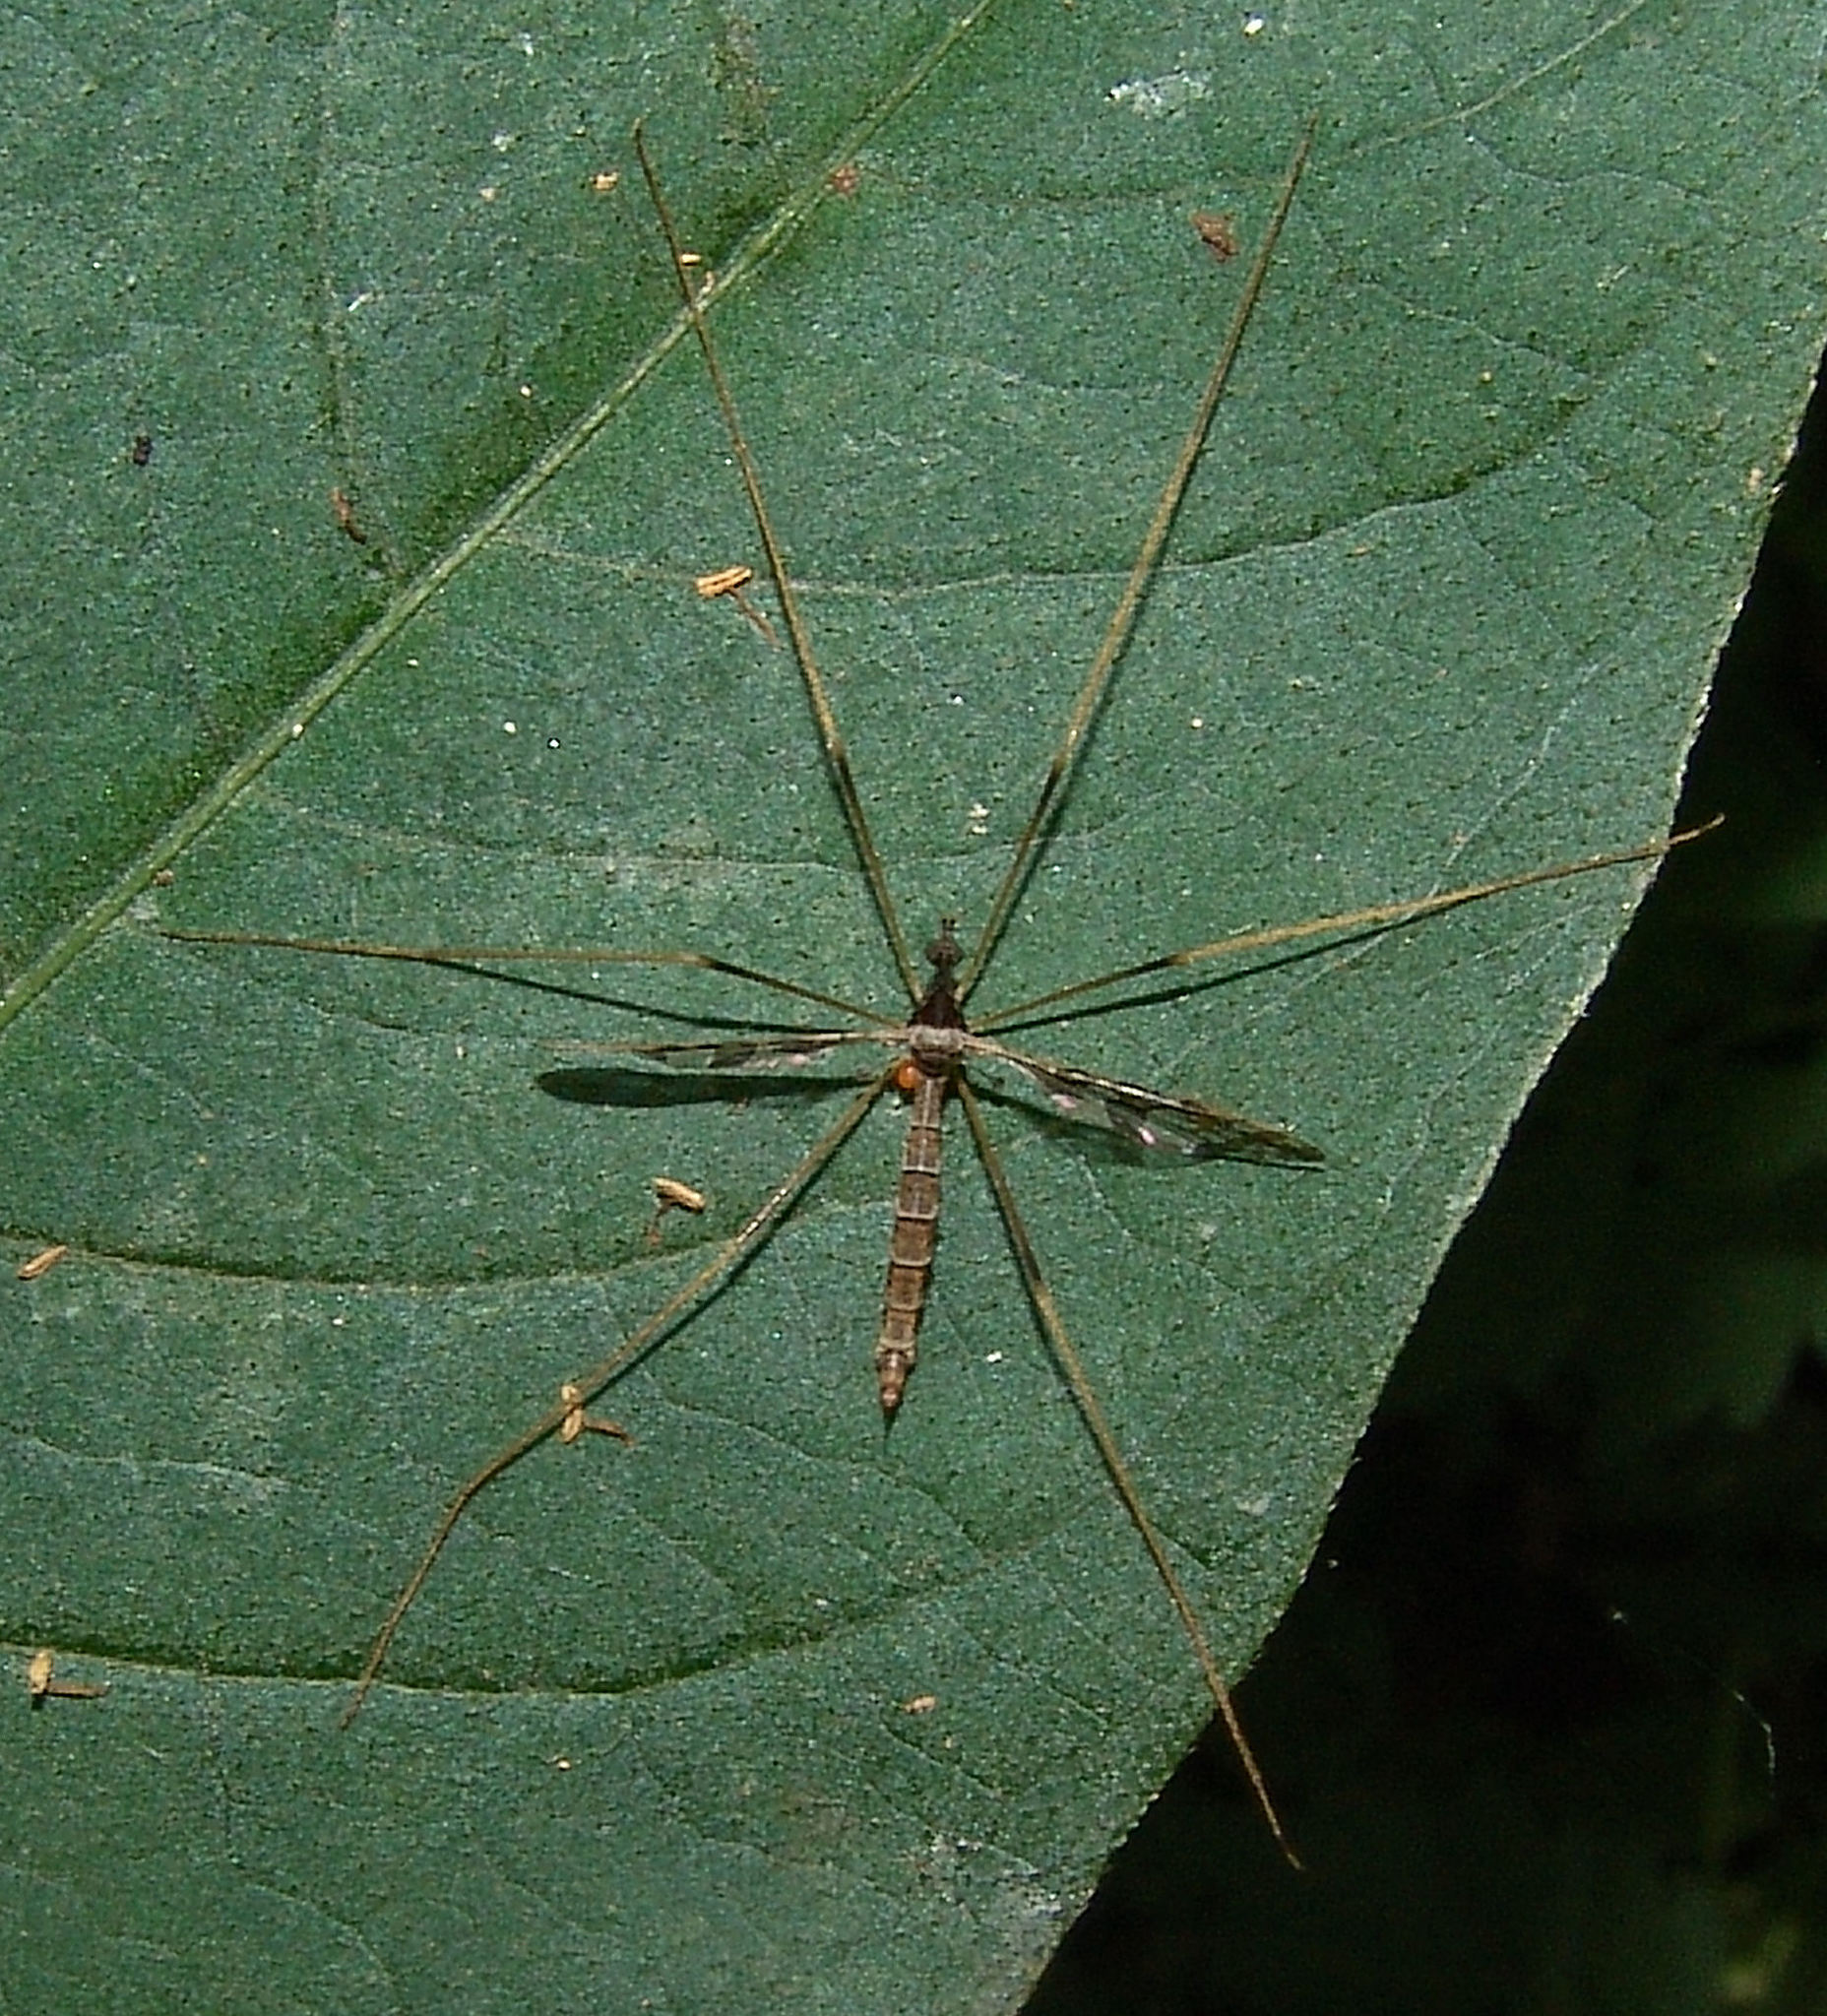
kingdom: Animalia
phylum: Arthropoda
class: Insecta
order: Diptera
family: Limoniidae
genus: Epiphragma
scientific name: Epiphragma solatrix
